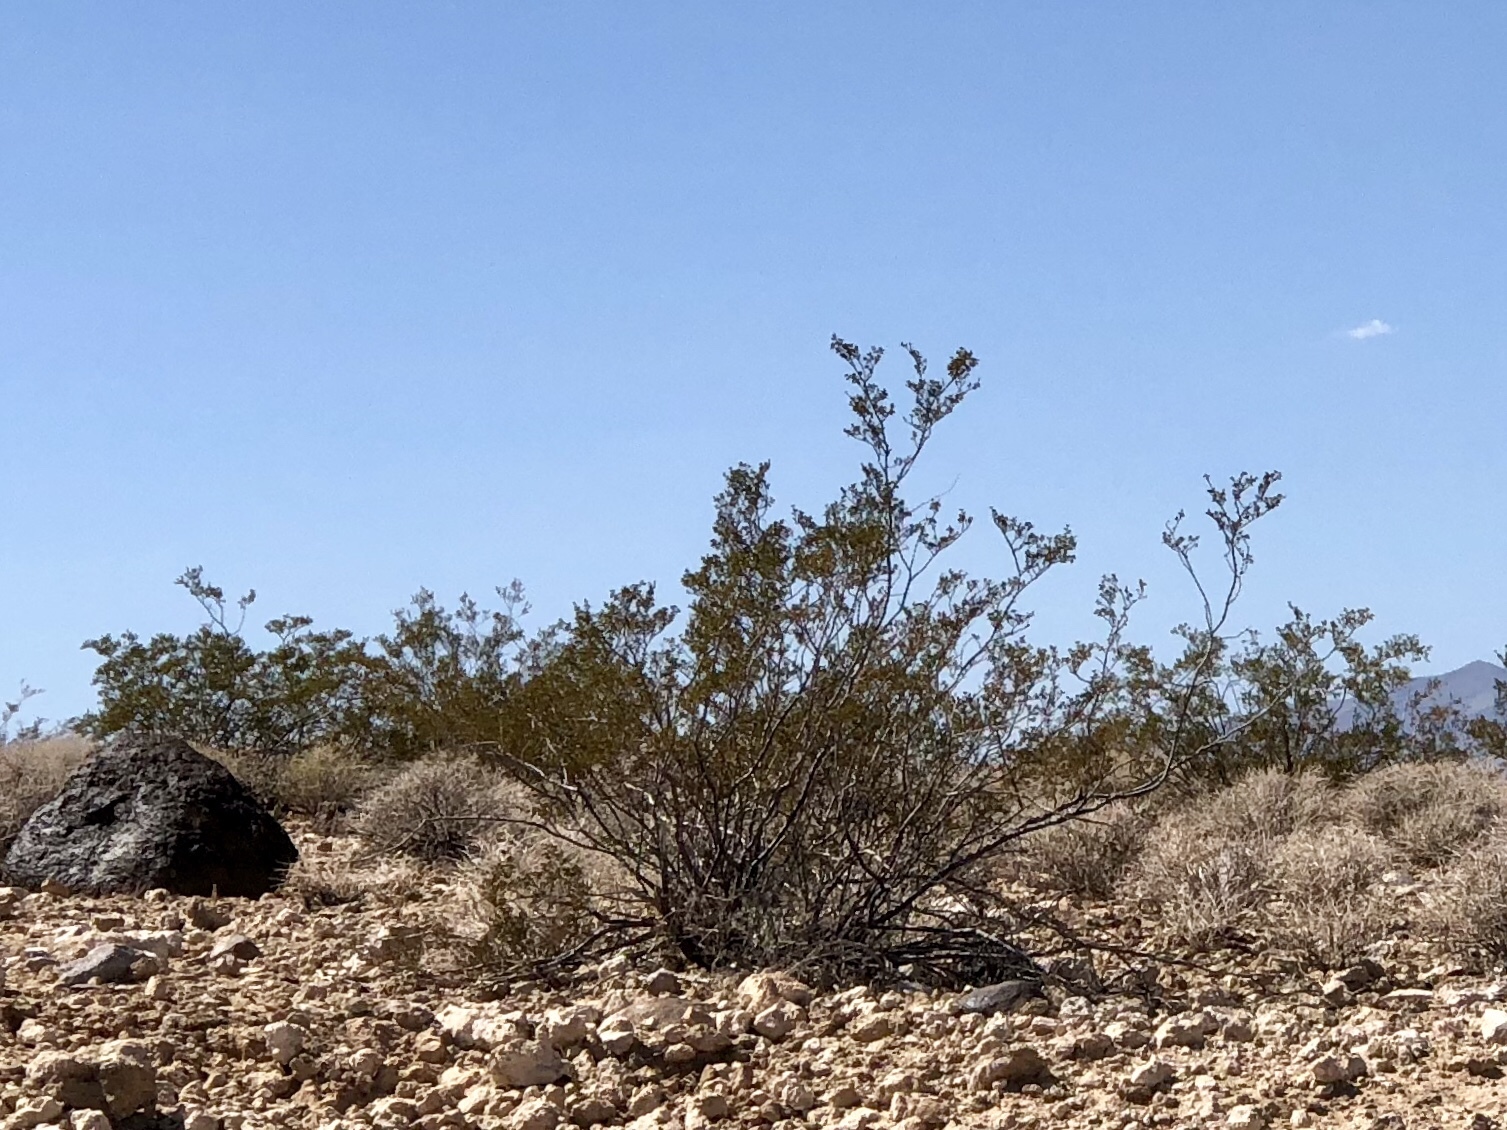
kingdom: Plantae
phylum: Tracheophyta
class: Magnoliopsida
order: Zygophyllales
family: Zygophyllaceae
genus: Larrea
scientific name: Larrea tridentata
